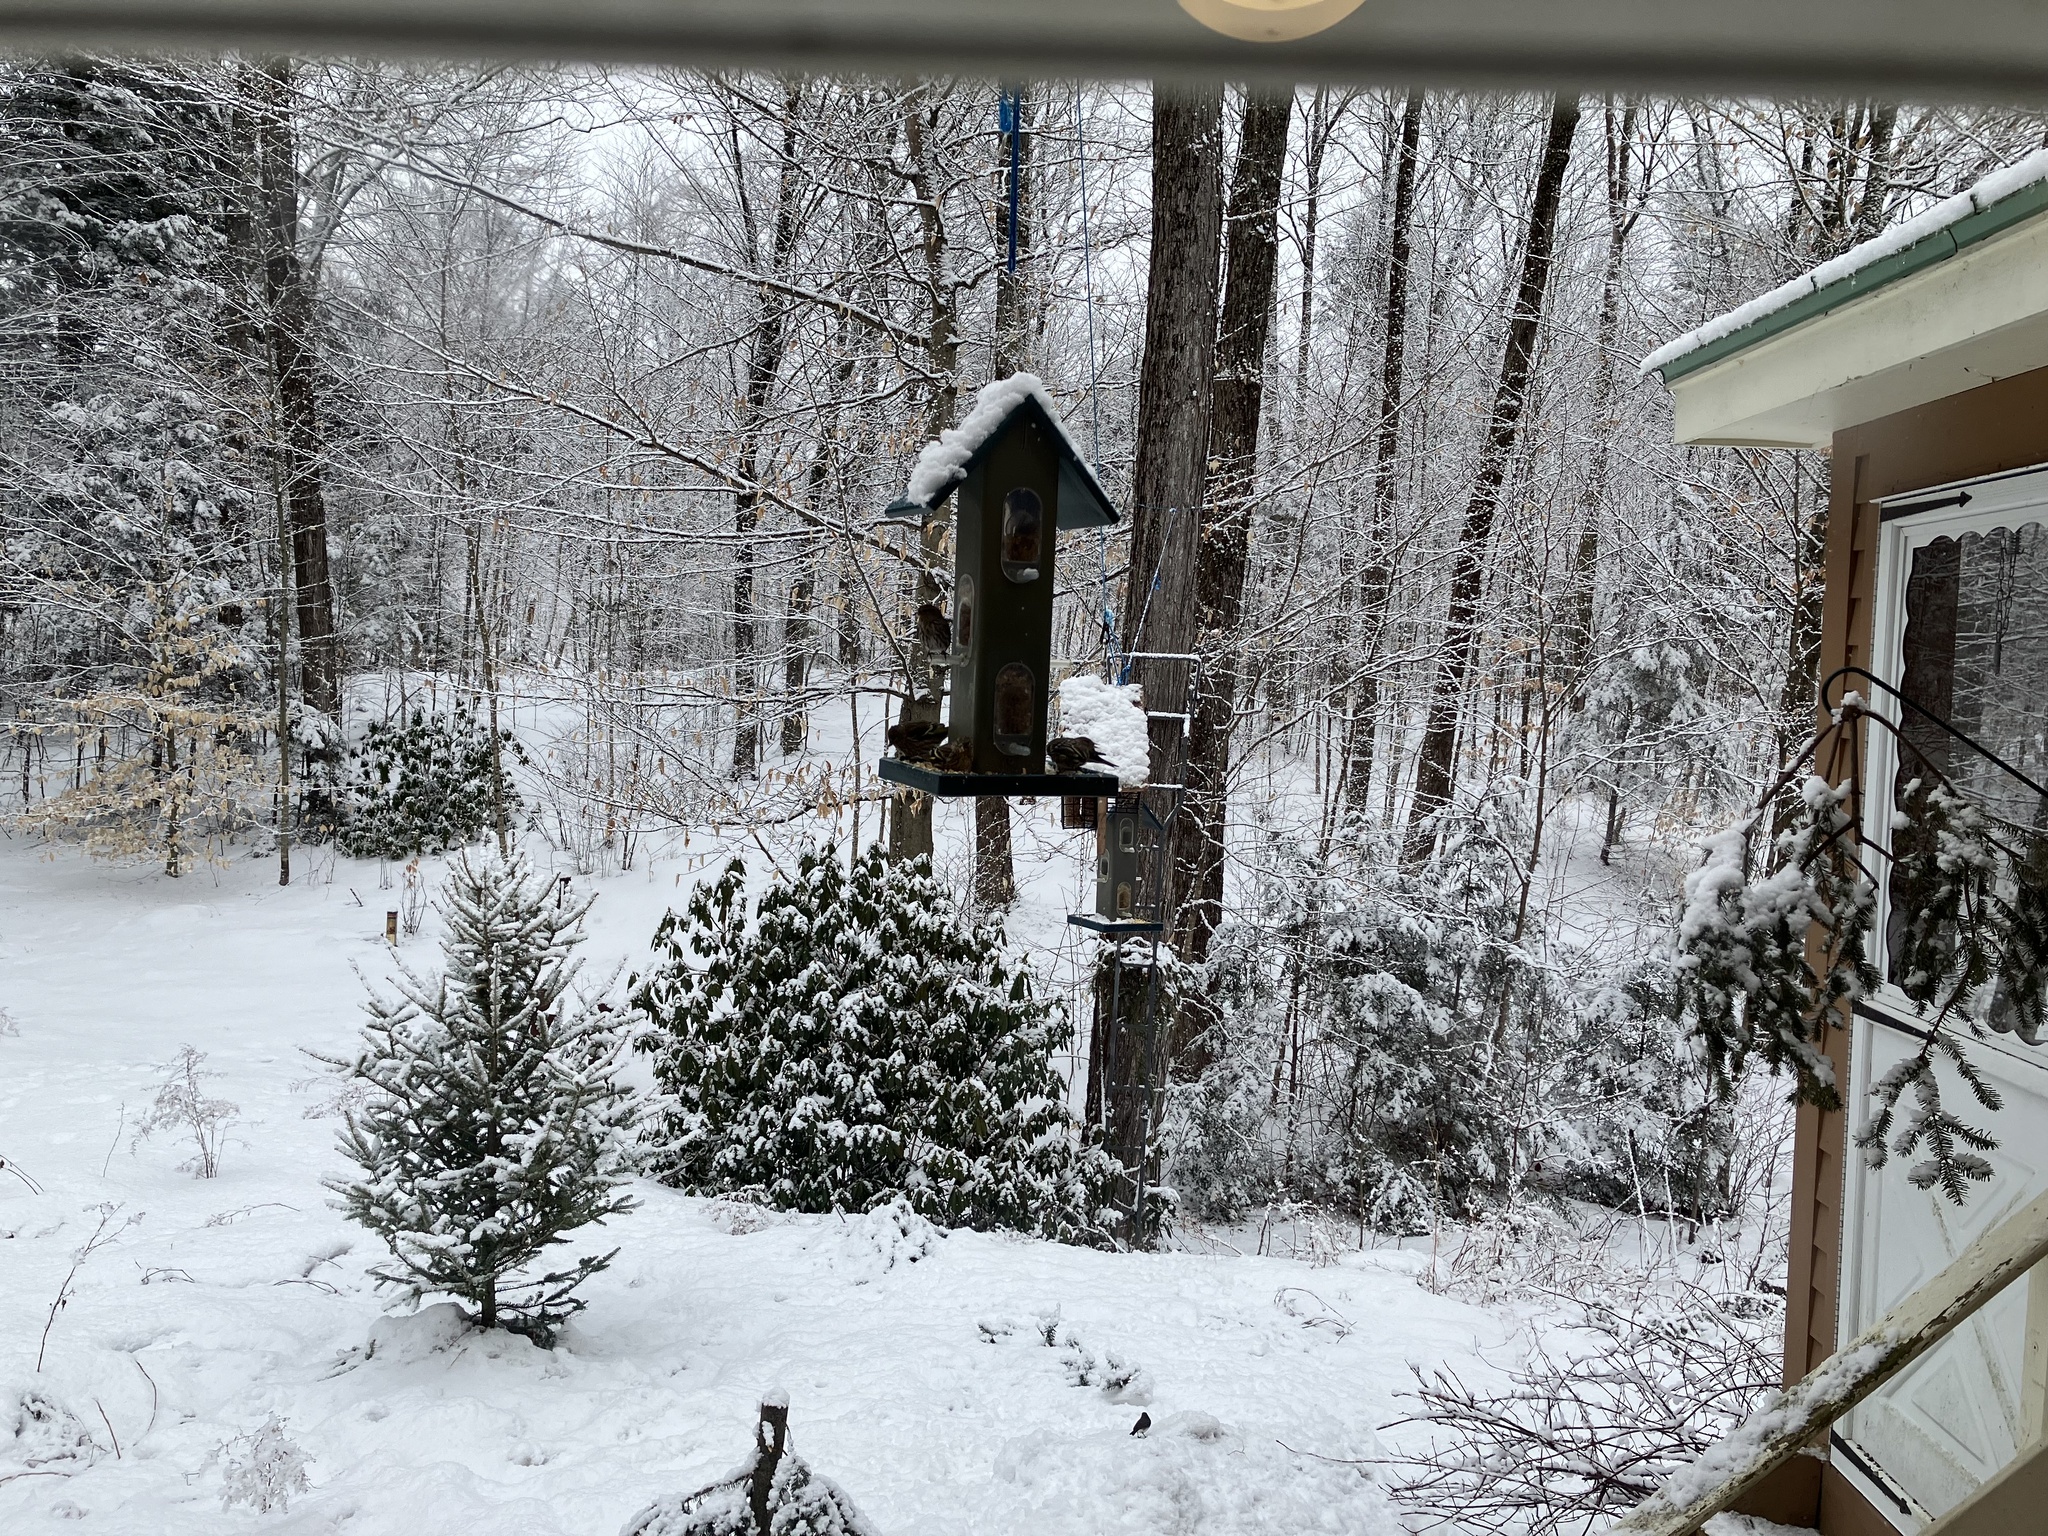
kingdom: Animalia
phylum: Chordata
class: Aves
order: Passeriformes
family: Fringillidae
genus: Spinus
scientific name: Spinus pinus
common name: Pine siskin
